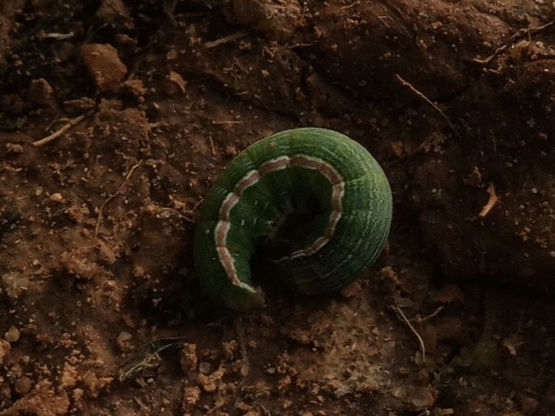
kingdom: Animalia
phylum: Arthropoda
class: Insecta
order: Lepidoptera
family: Noctuidae
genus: Anicla
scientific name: Anicla infecta
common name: Green cutworm
